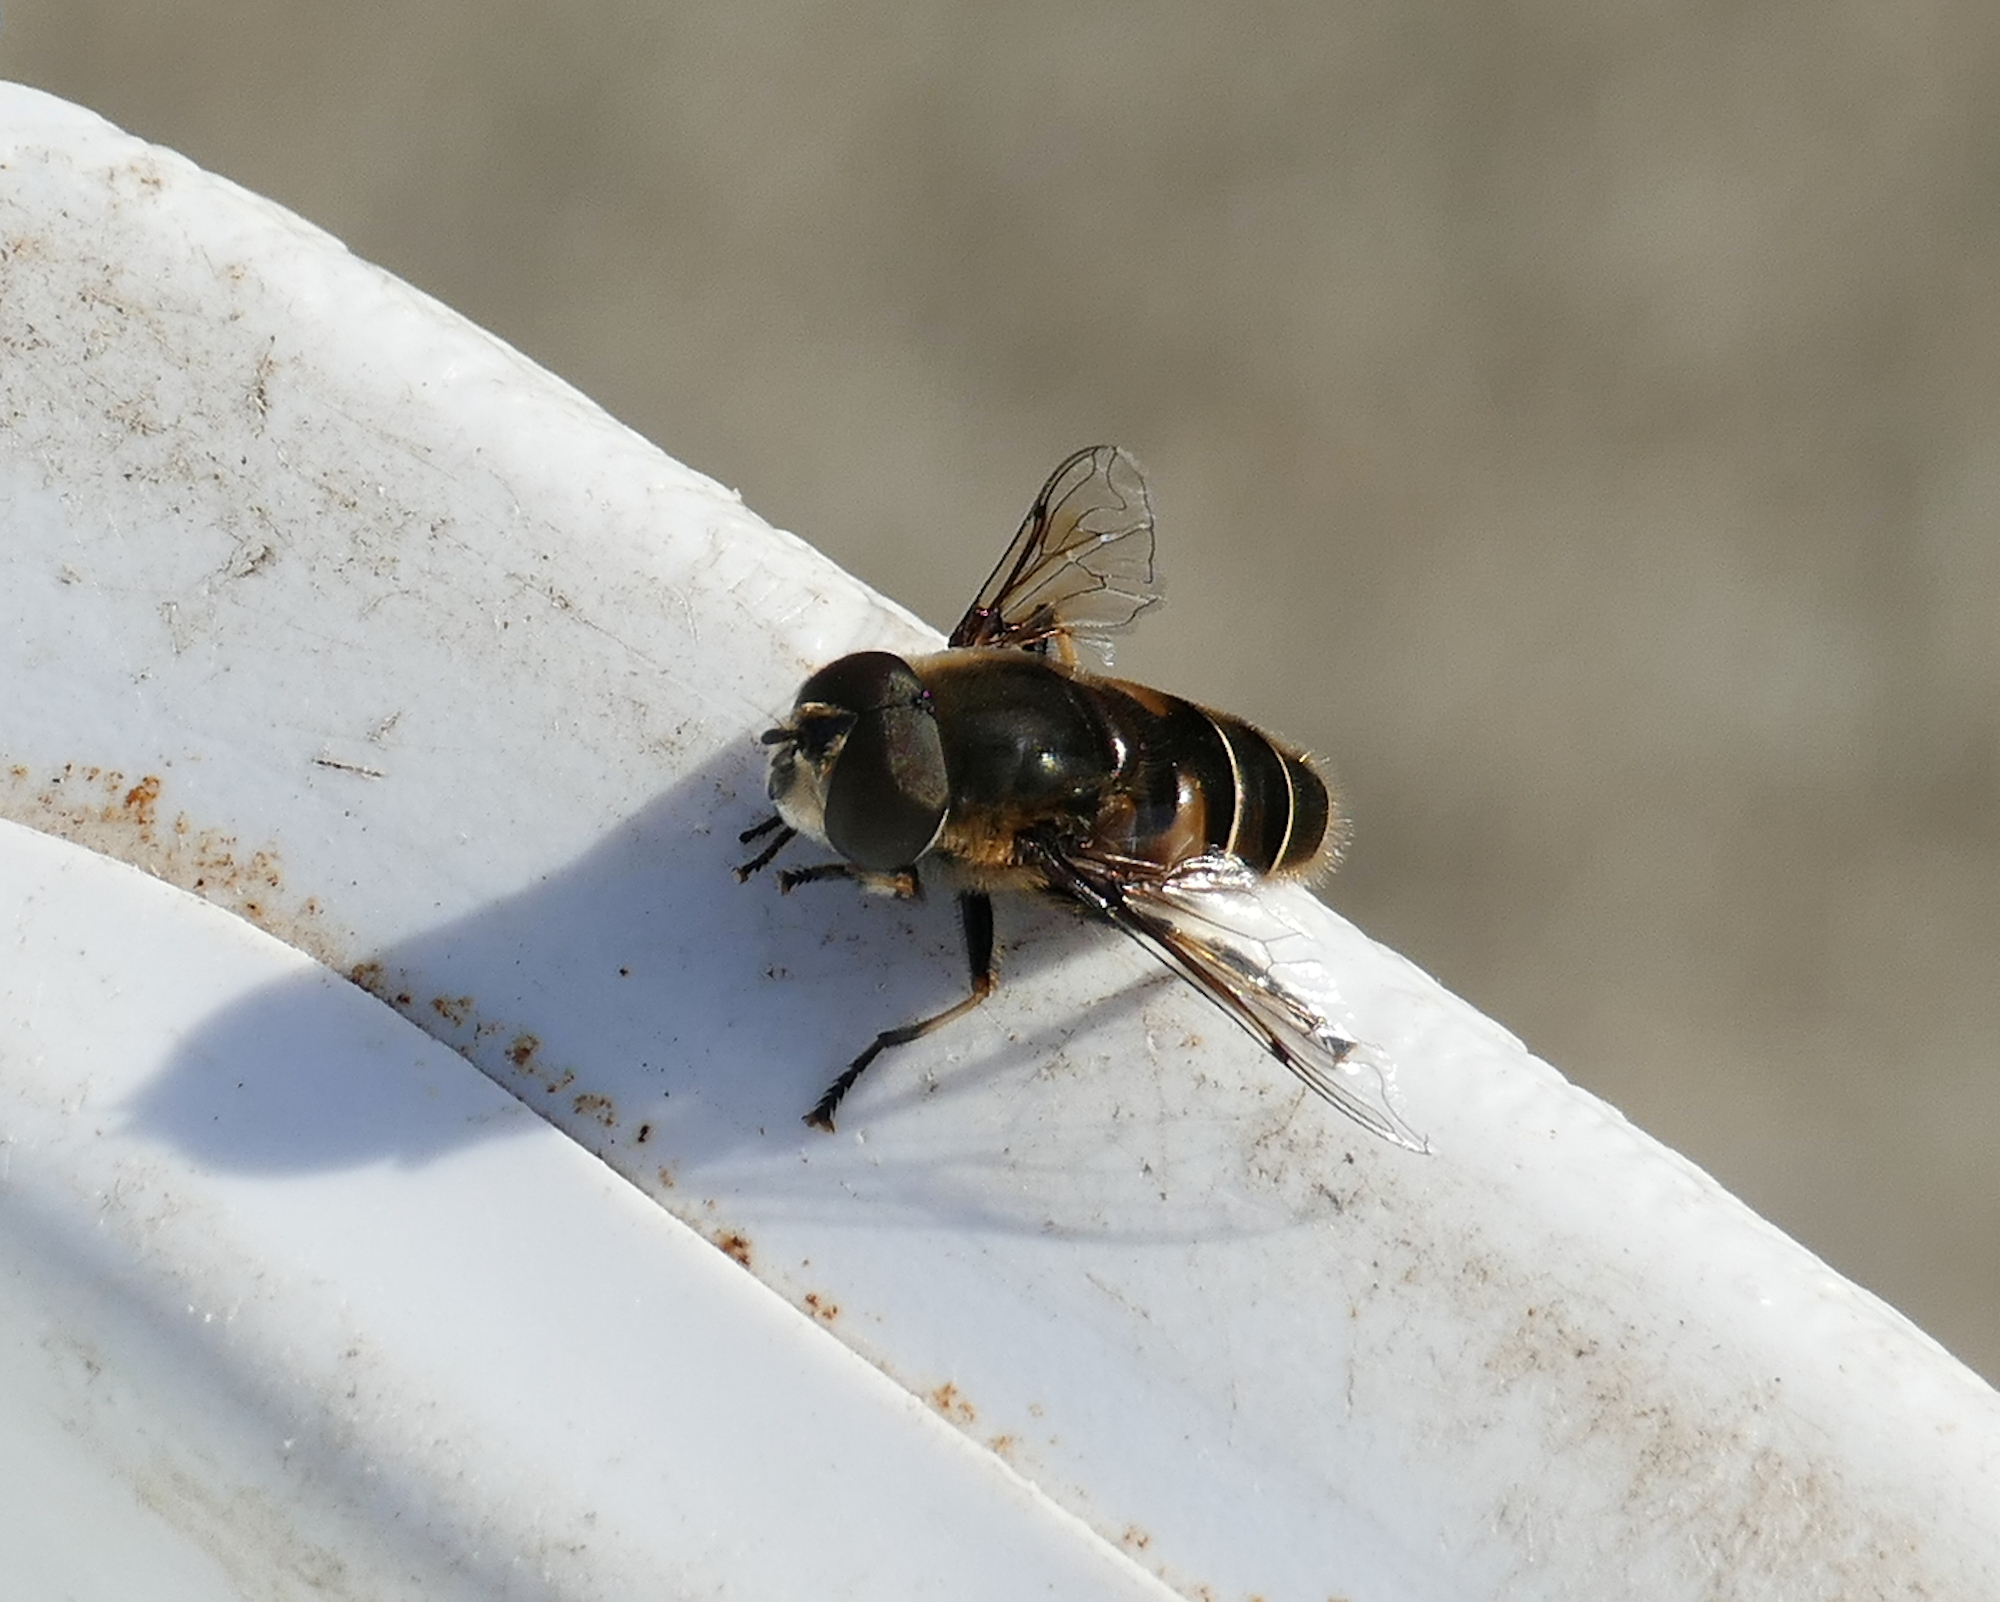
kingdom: Animalia
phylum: Arthropoda
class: Insecta
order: Diptera
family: Syrphidae
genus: Eristalis
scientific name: Eristalis dimidiata
